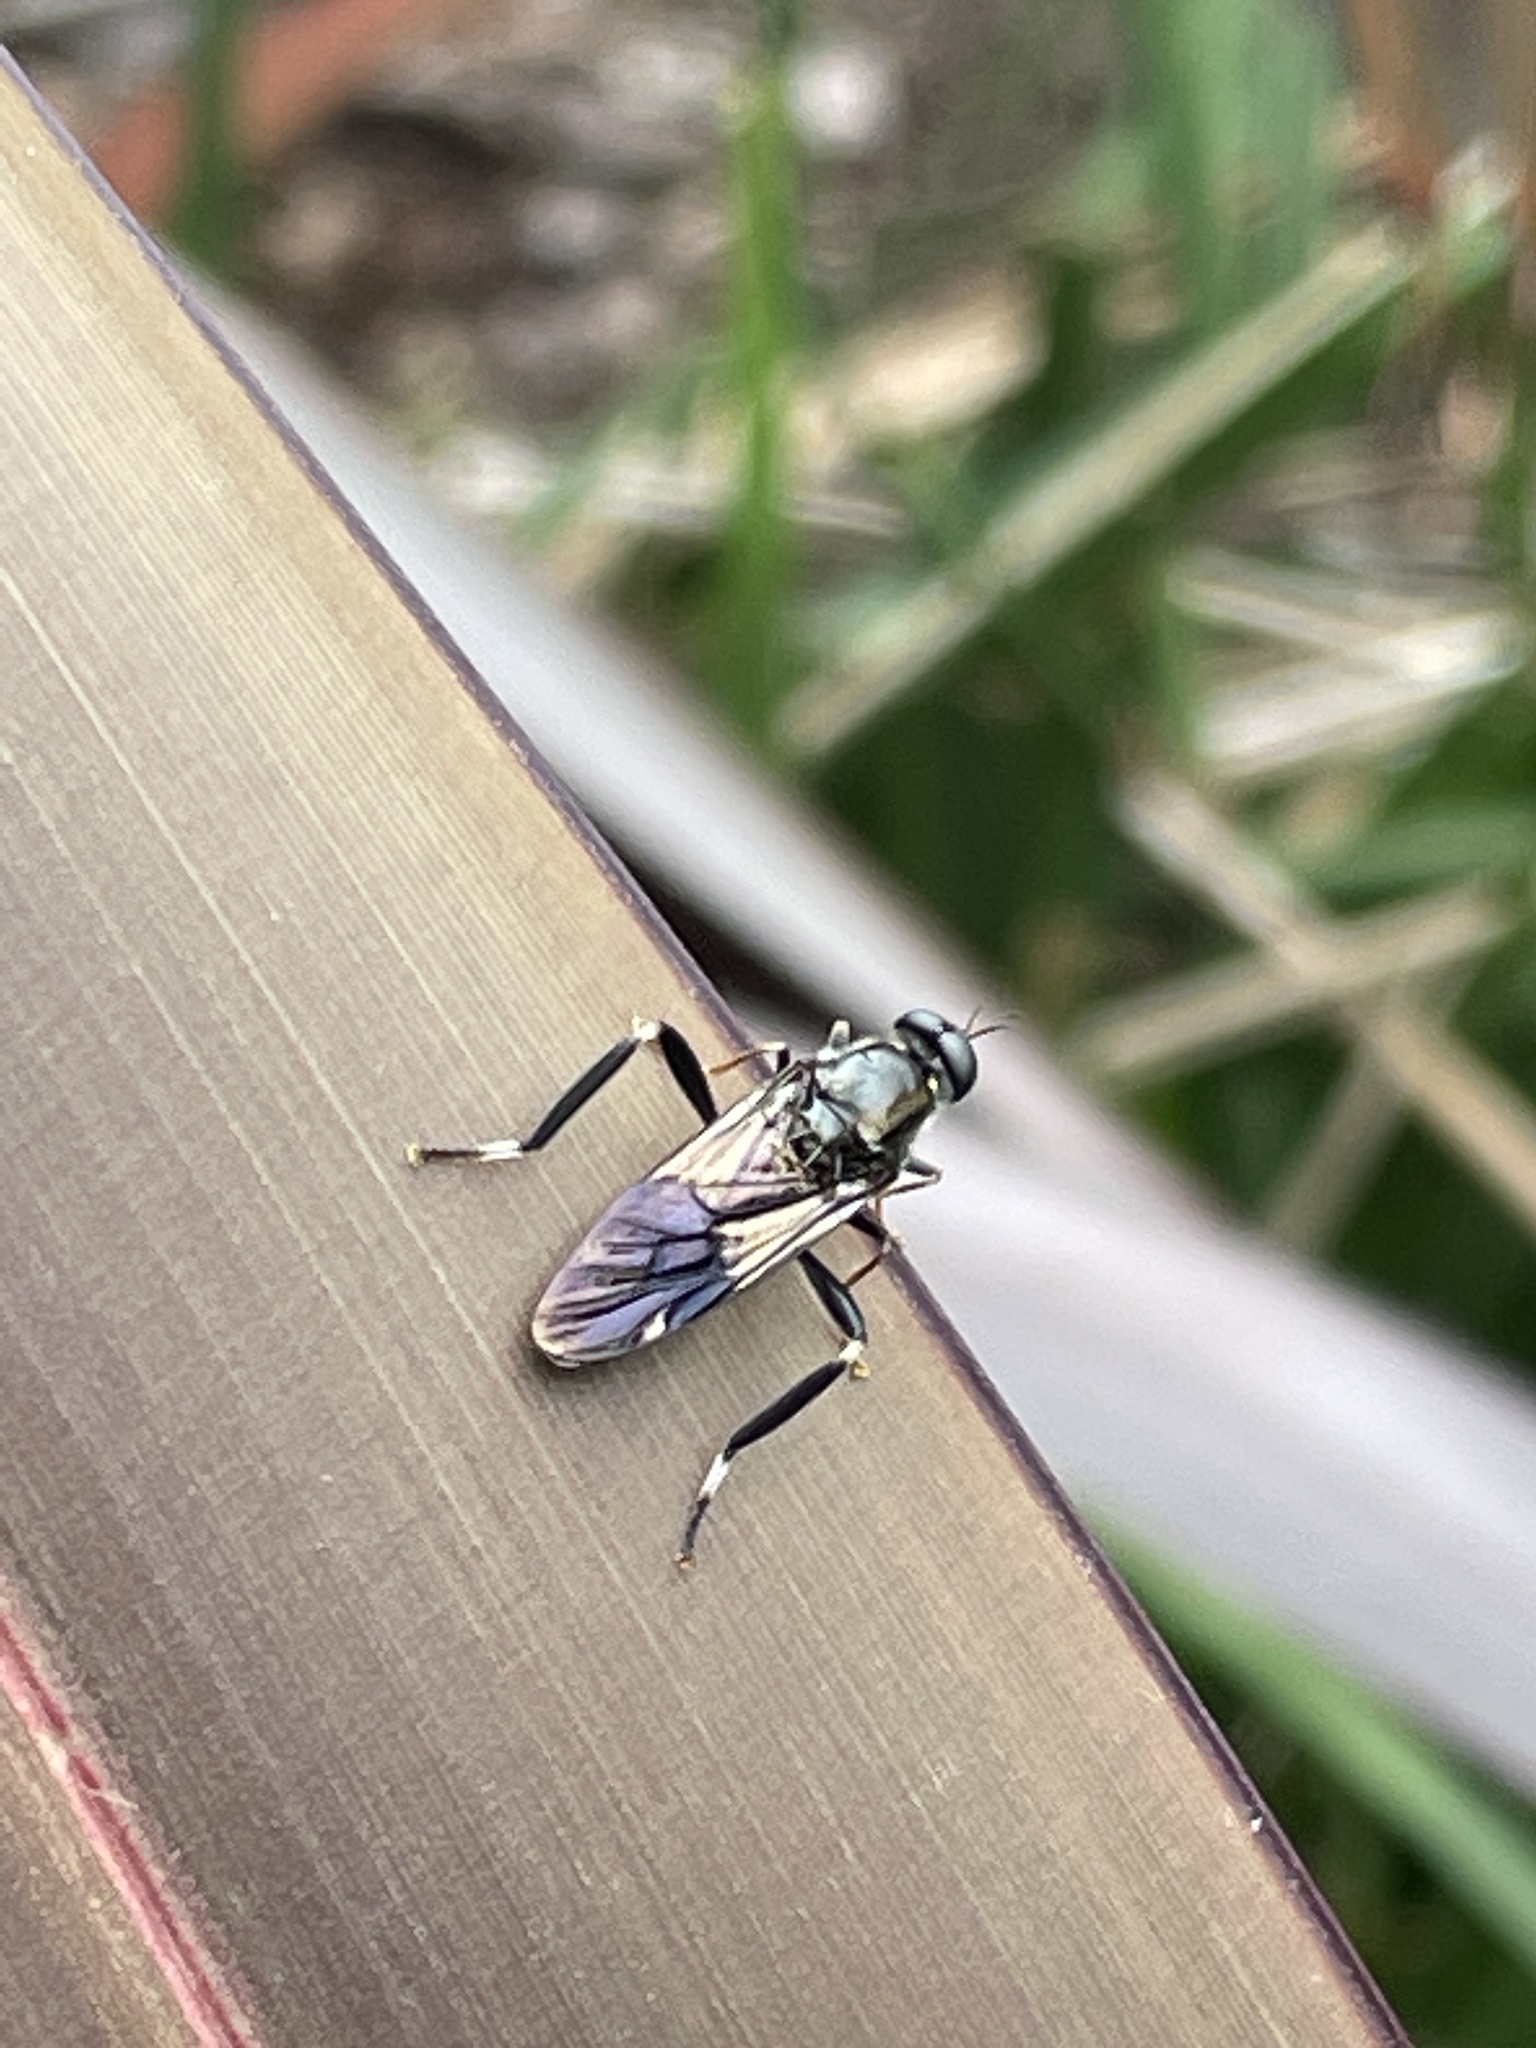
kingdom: Animalia
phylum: Arthropoda
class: Insecta
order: Diptera
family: Stratiomyidae
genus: Exaireta
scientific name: Exaireta spinigera
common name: Blue soldier fly
